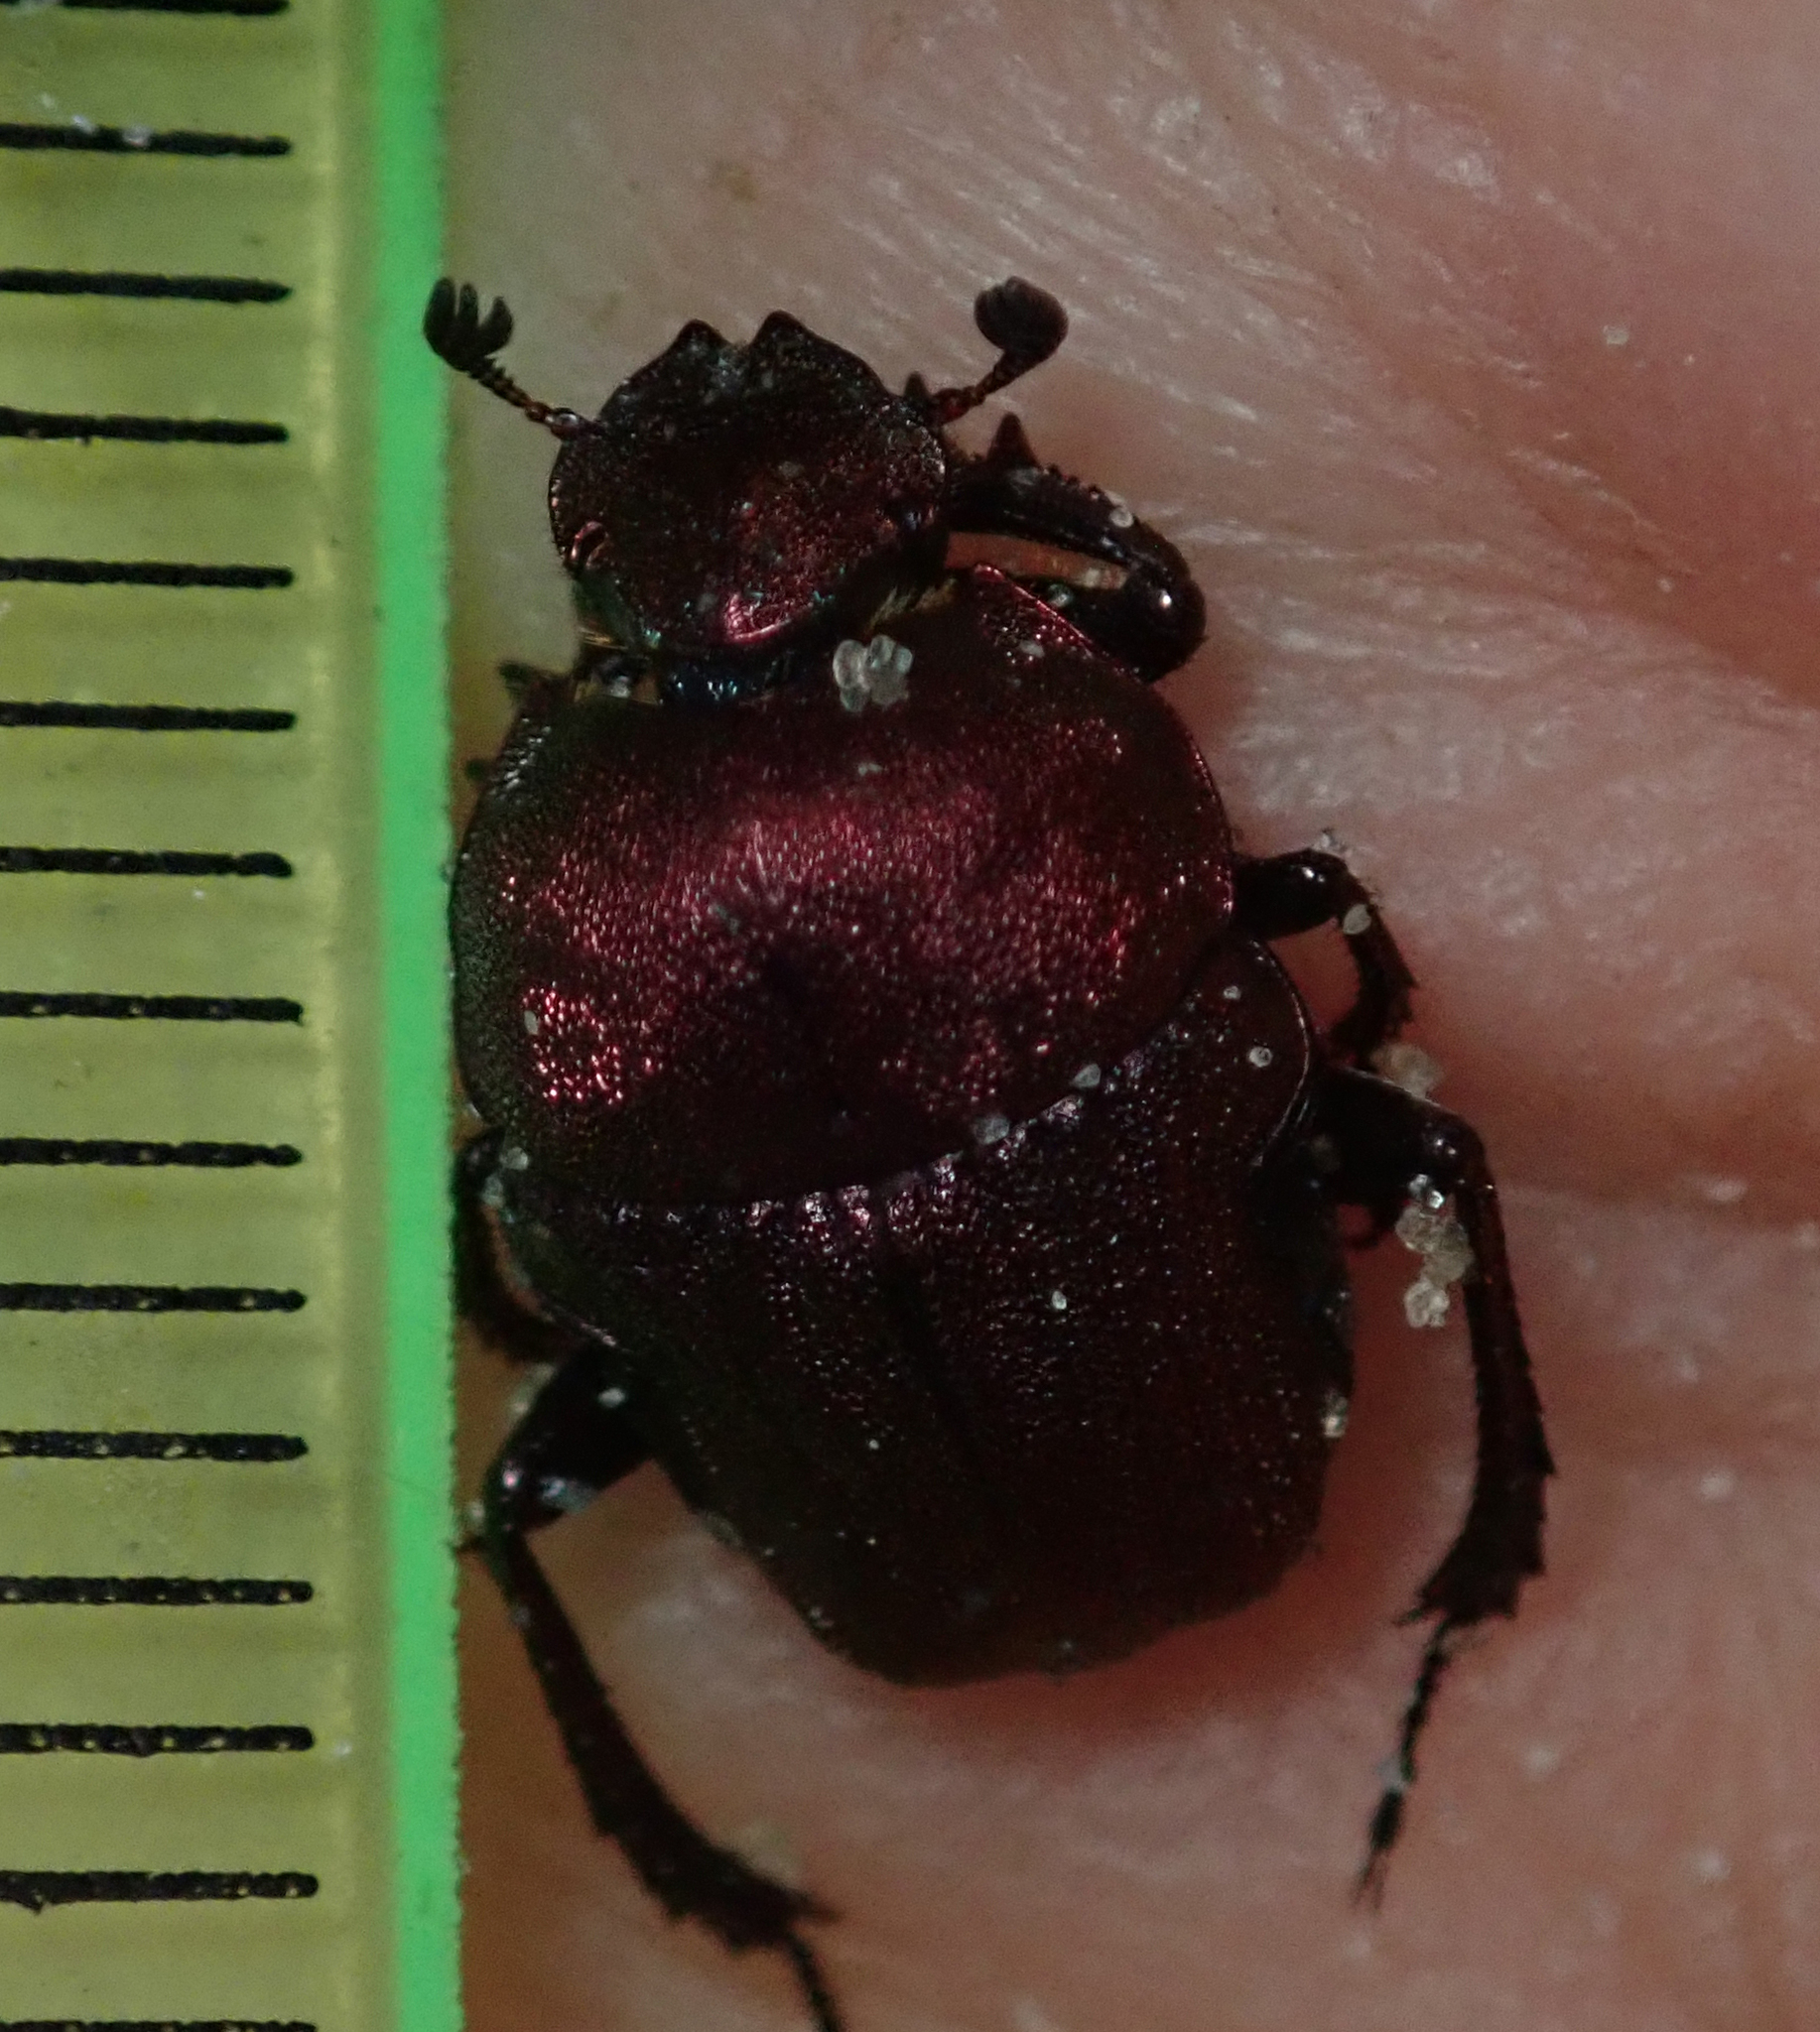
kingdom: Animalia
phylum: Arthropoda
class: Insecta
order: Coleoptera
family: Scarabaeidae
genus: Gymnopleurus
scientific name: Gymnopleurus aenescens
